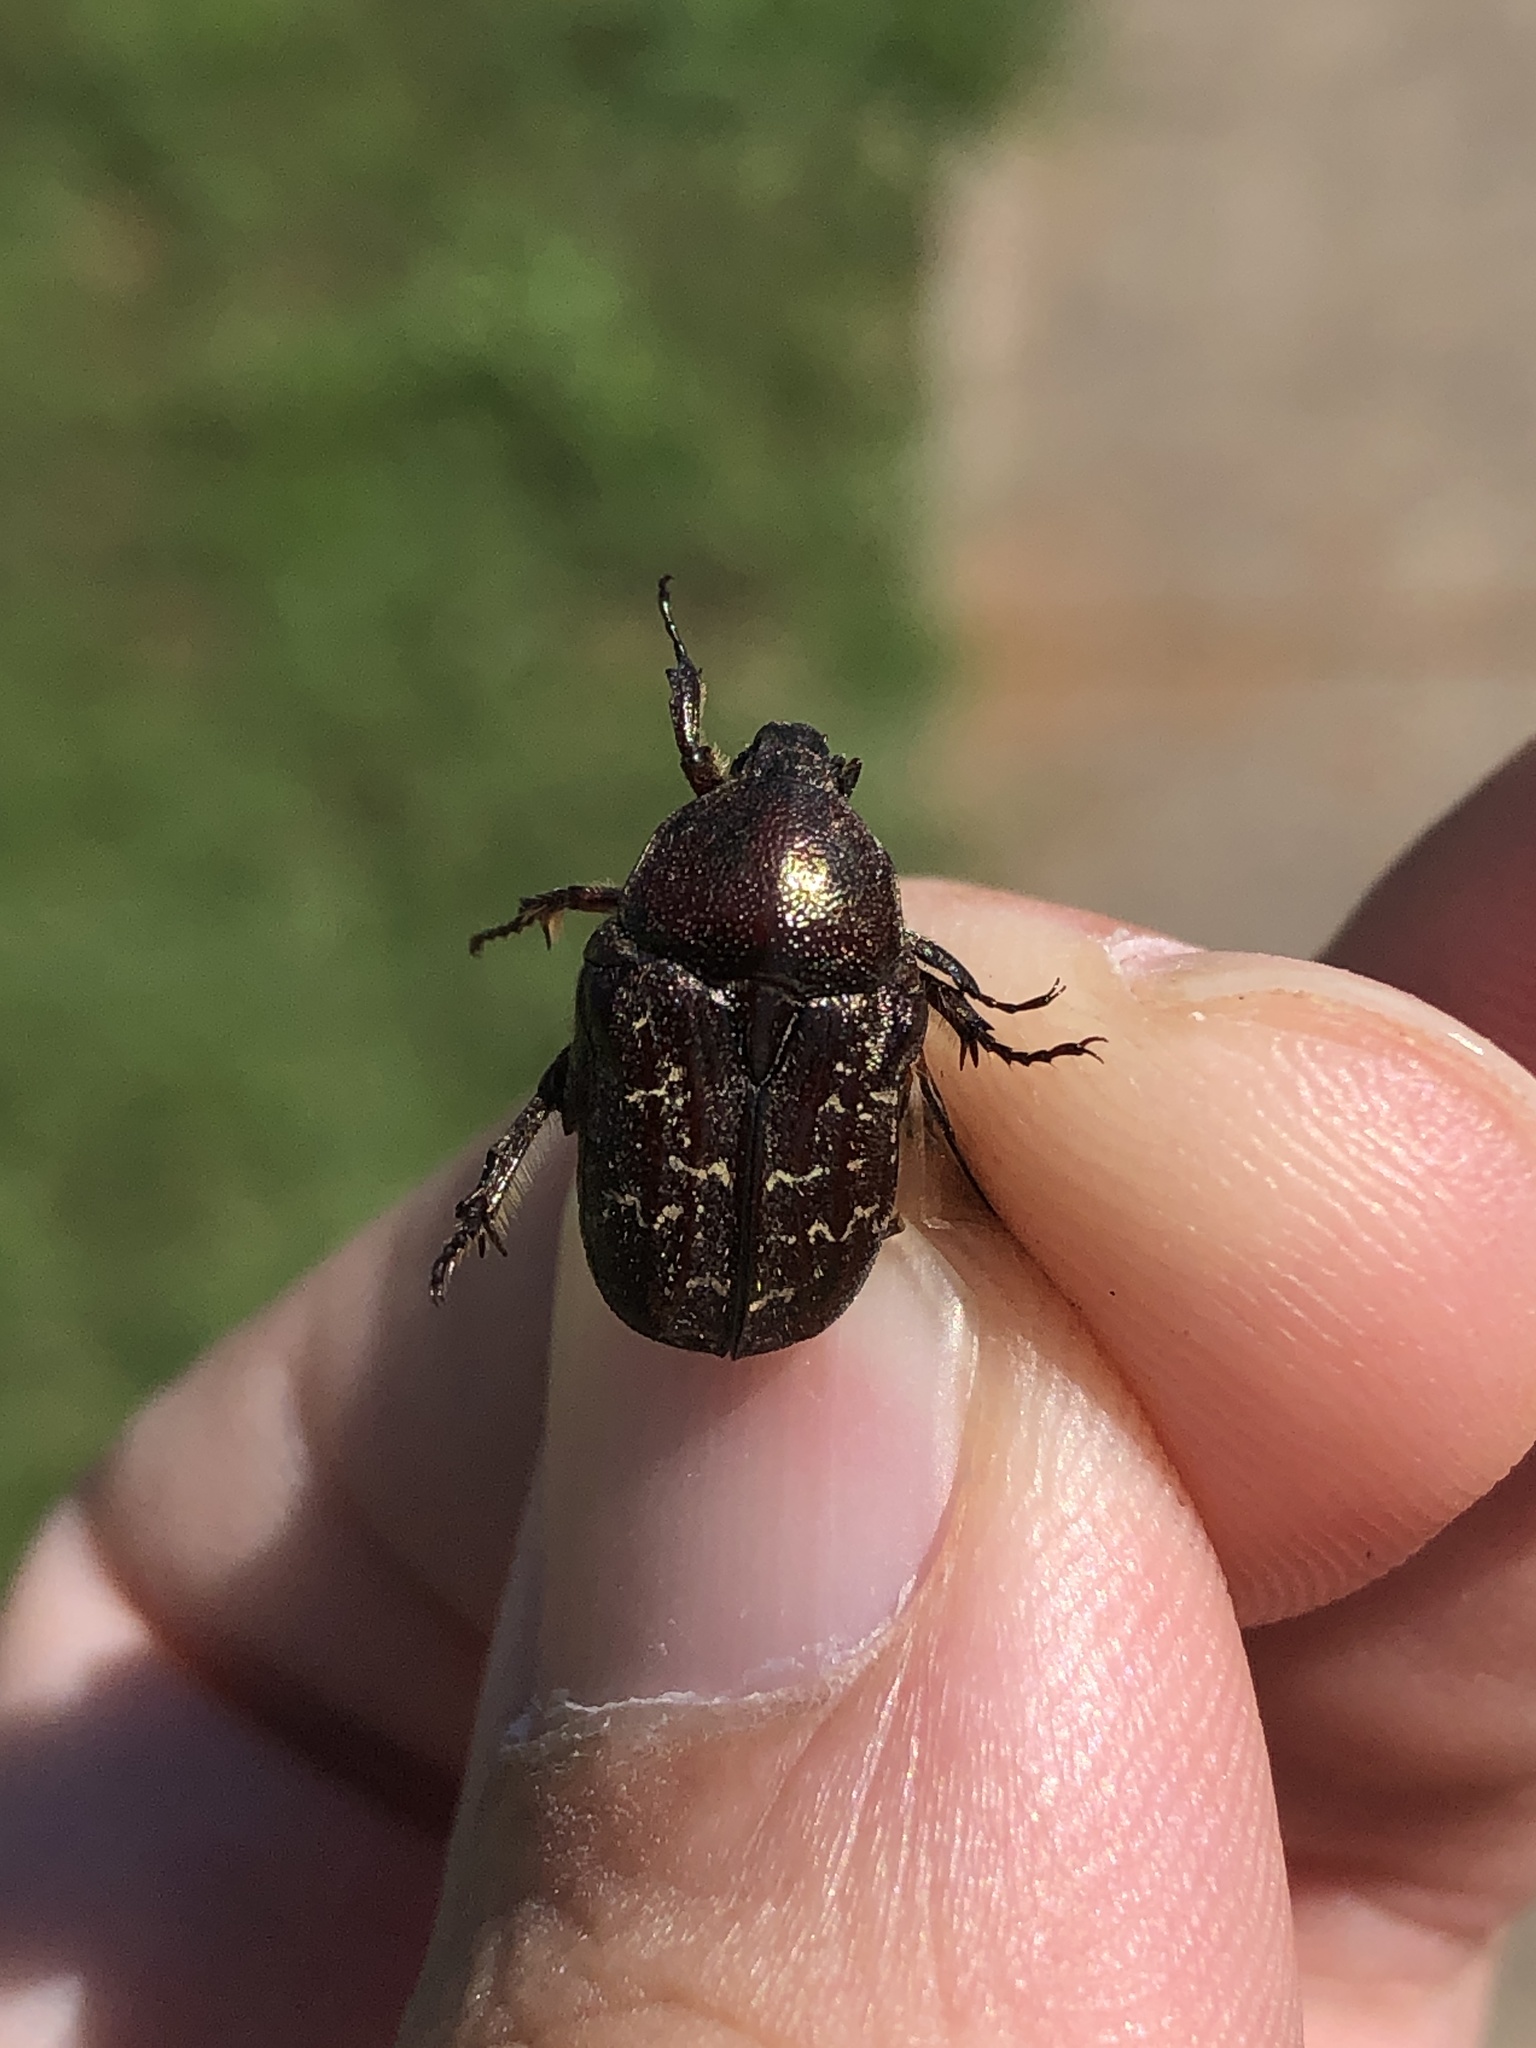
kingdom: Animalia
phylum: Arthropoda
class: Insecta
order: Coleoptera
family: Scarabaeidae
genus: Euphoria
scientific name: Euphoria sepulcralis
